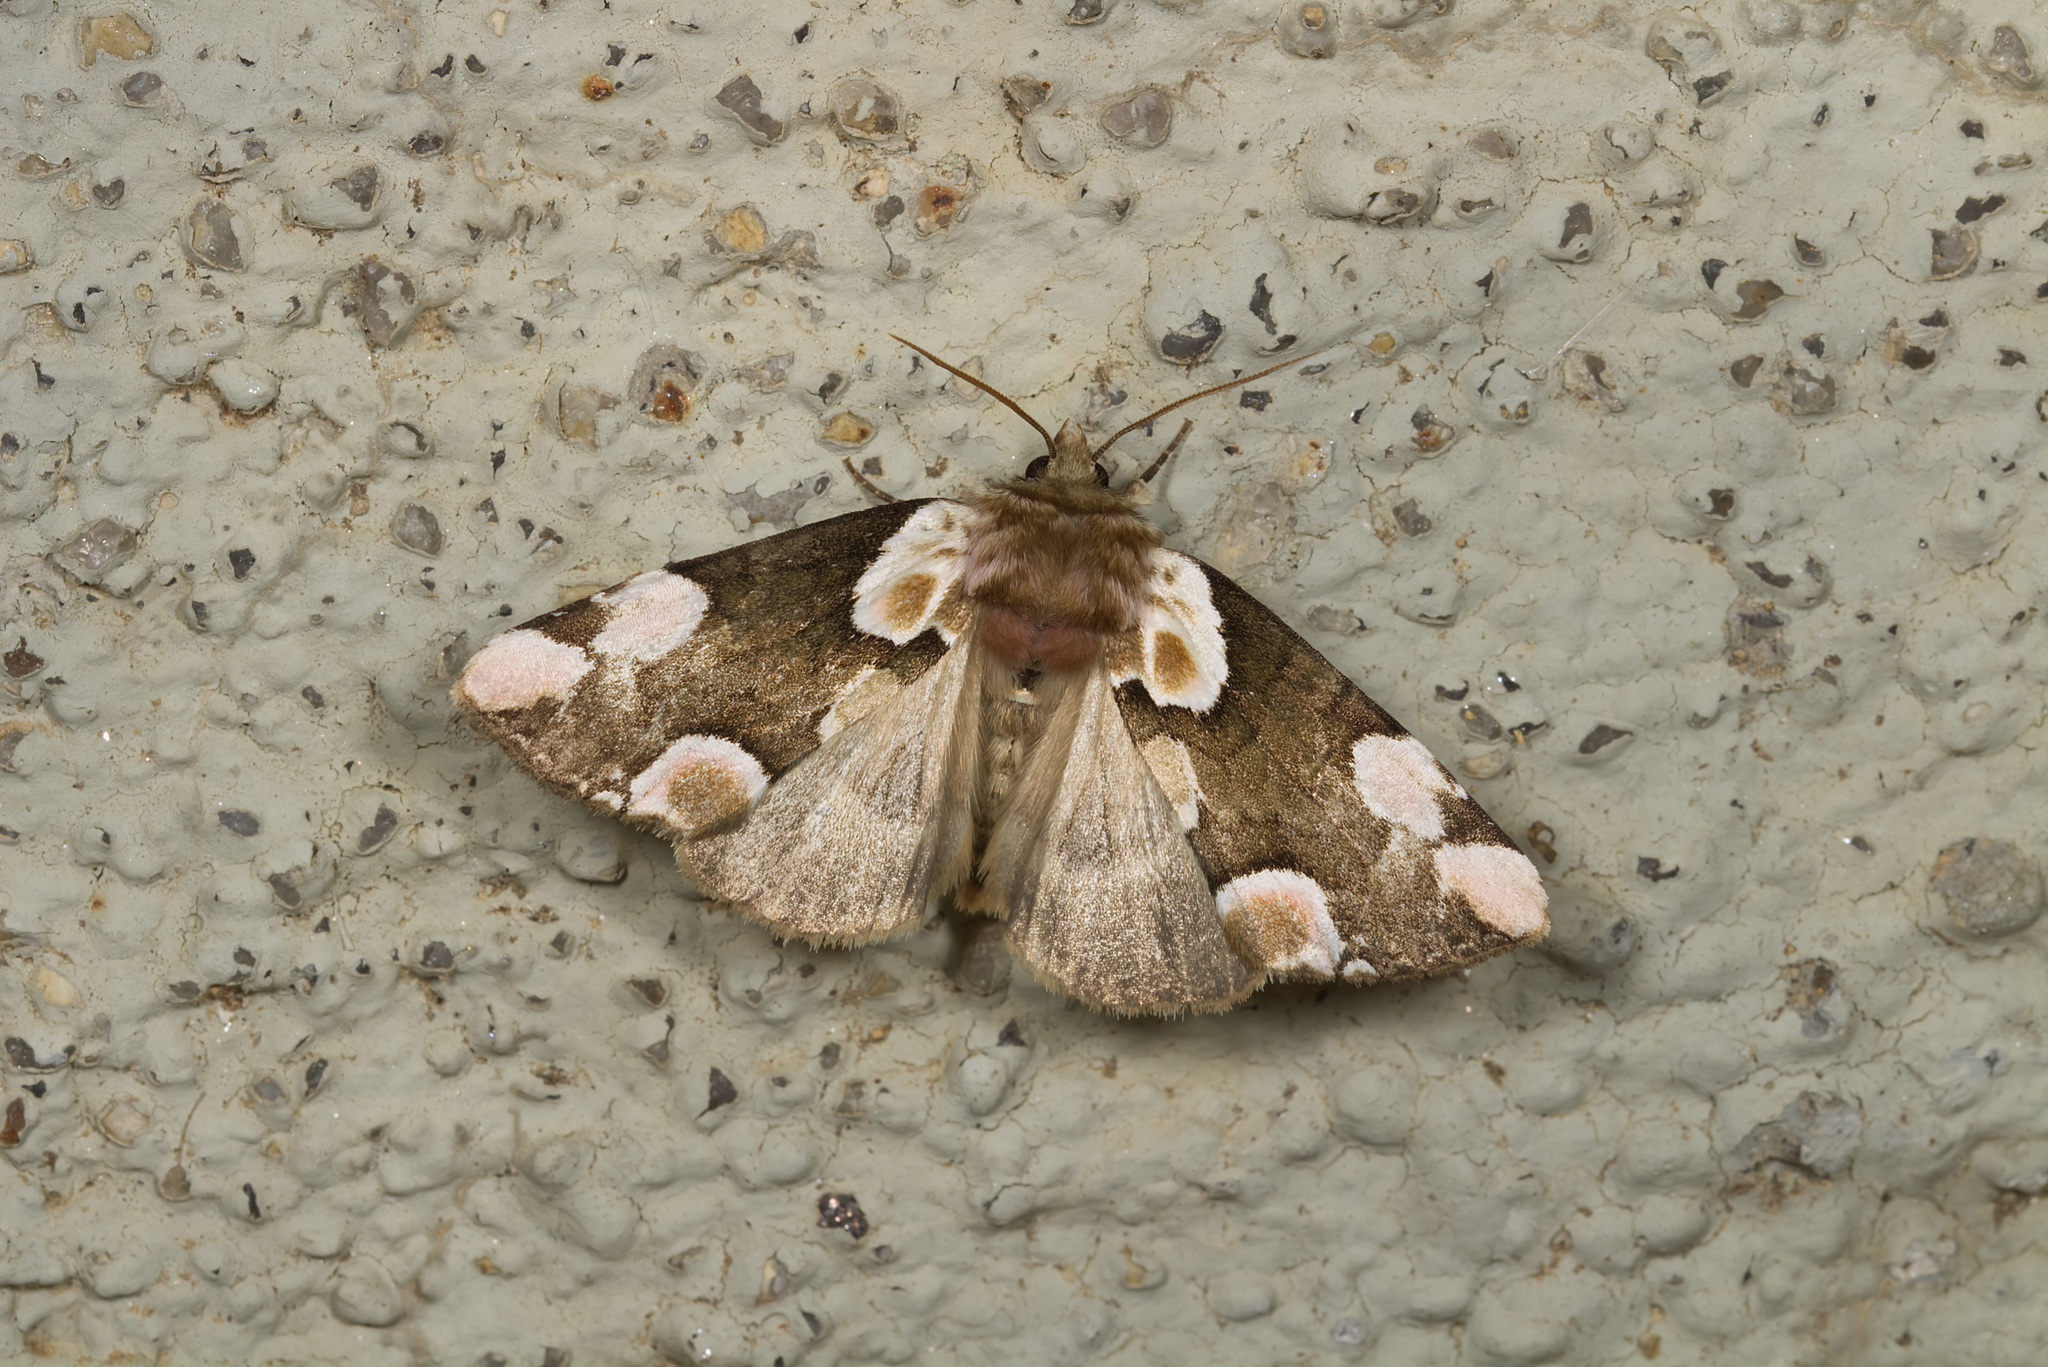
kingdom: Animalia
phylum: Arthropoda
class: Insecta
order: Lepidoptera
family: Drepanidae
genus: Thyatira
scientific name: Thyatira batis
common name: Peach blossom
